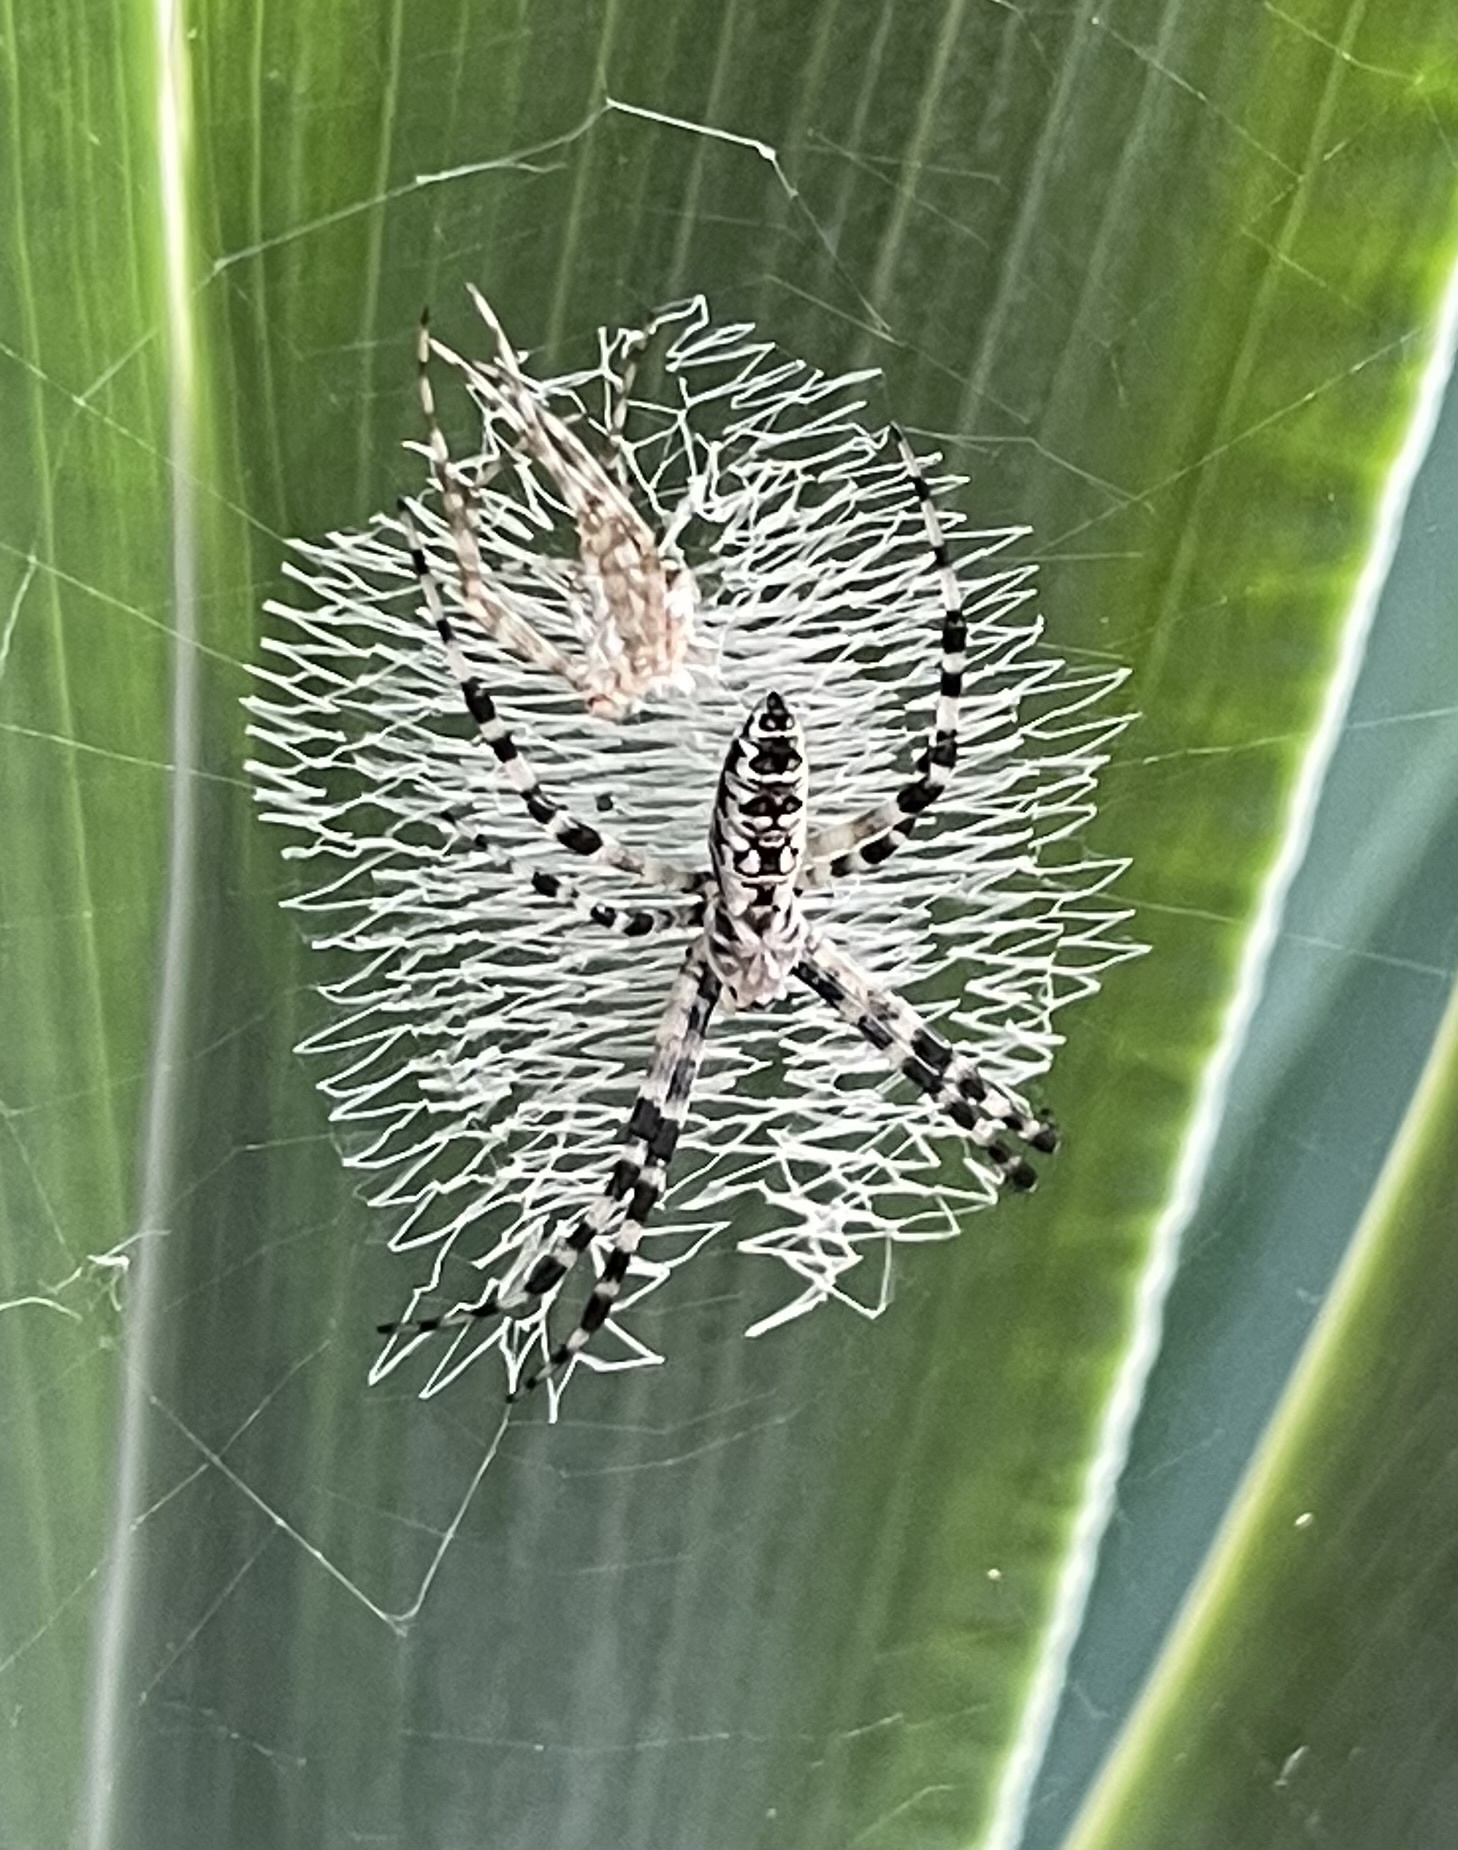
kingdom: Animalia
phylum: Arthropoda
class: Arachnida
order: Araneae
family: Araneidae
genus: Argiope
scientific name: Argiope aurantia
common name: Orb weavers
